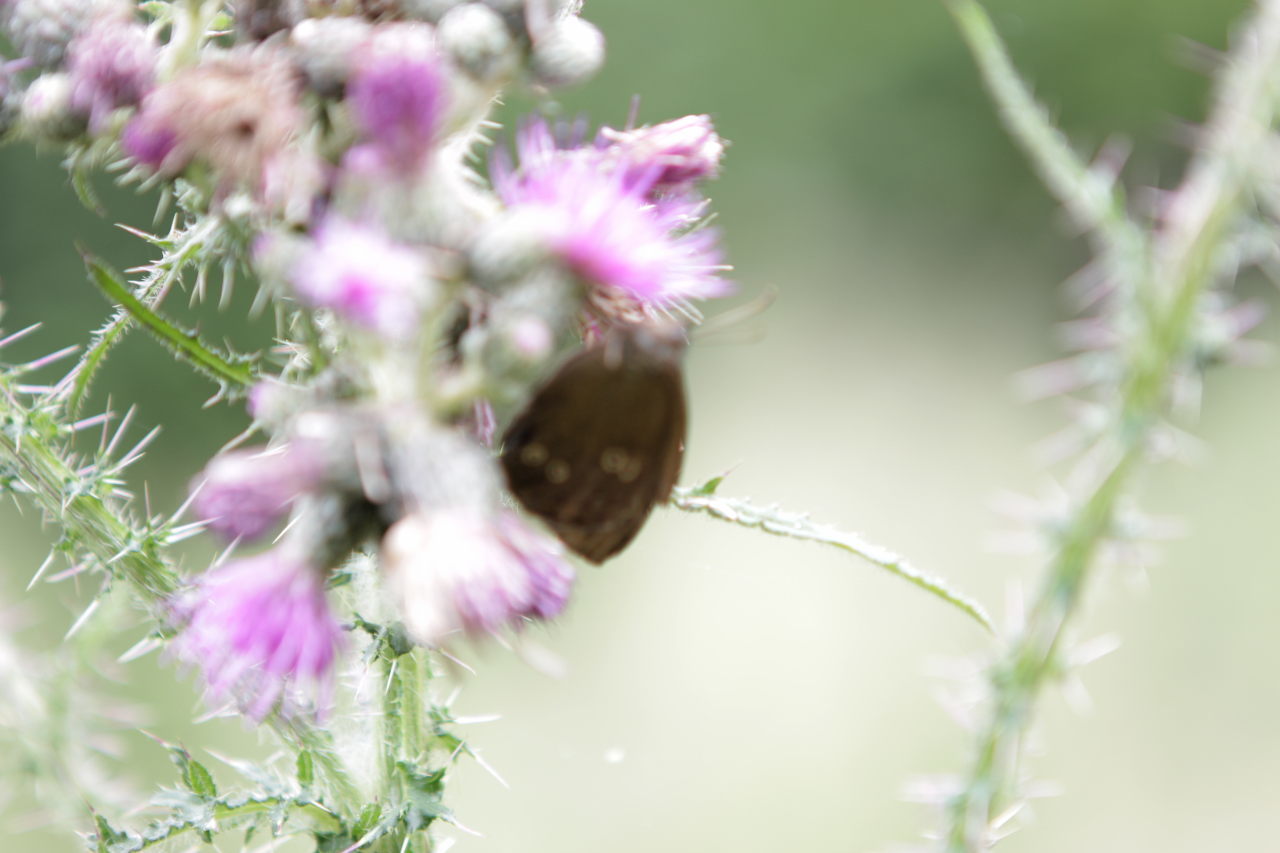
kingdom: Animalia
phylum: Arthropoda
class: Insecta
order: Lepidoptera
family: Nymphalidae
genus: Aphantopus
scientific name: Aphantopus hyperantus
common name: Ringlet
